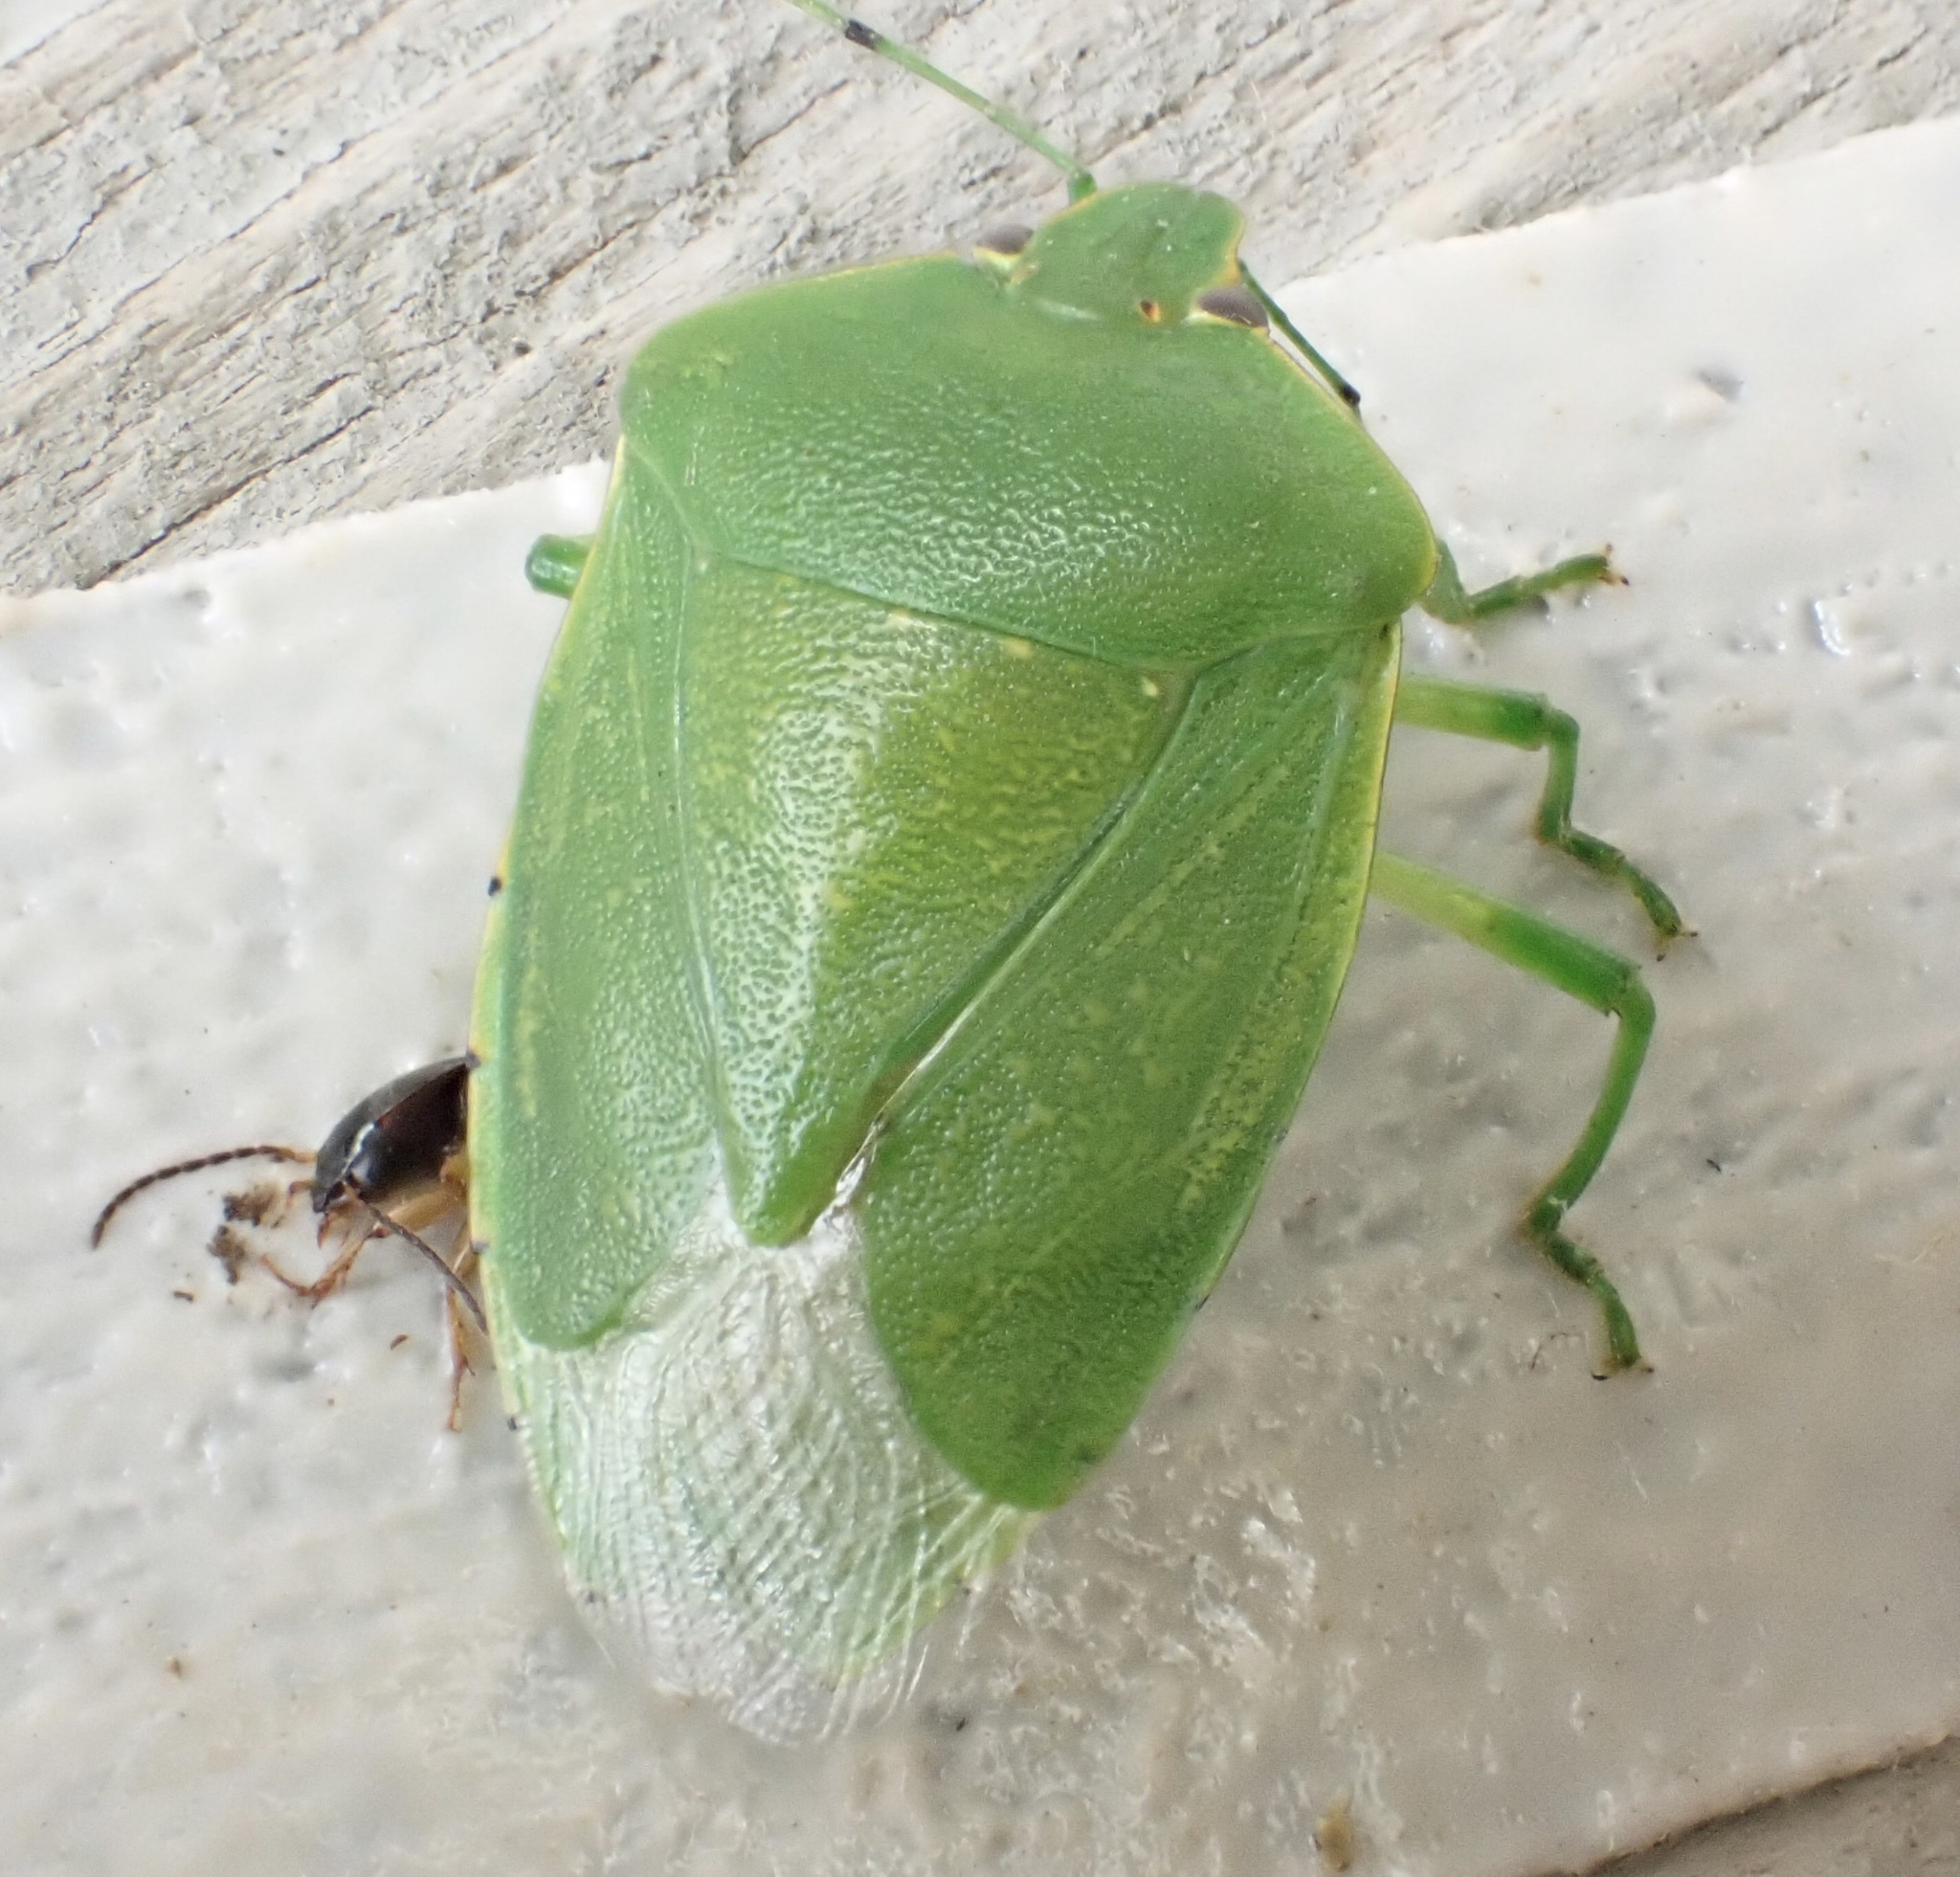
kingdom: Animalia
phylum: Arthropoda
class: Insecta
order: Hemiptera
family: Pentatomidae
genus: Chinavia
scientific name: Chinavia hilaris
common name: Green stink bug
